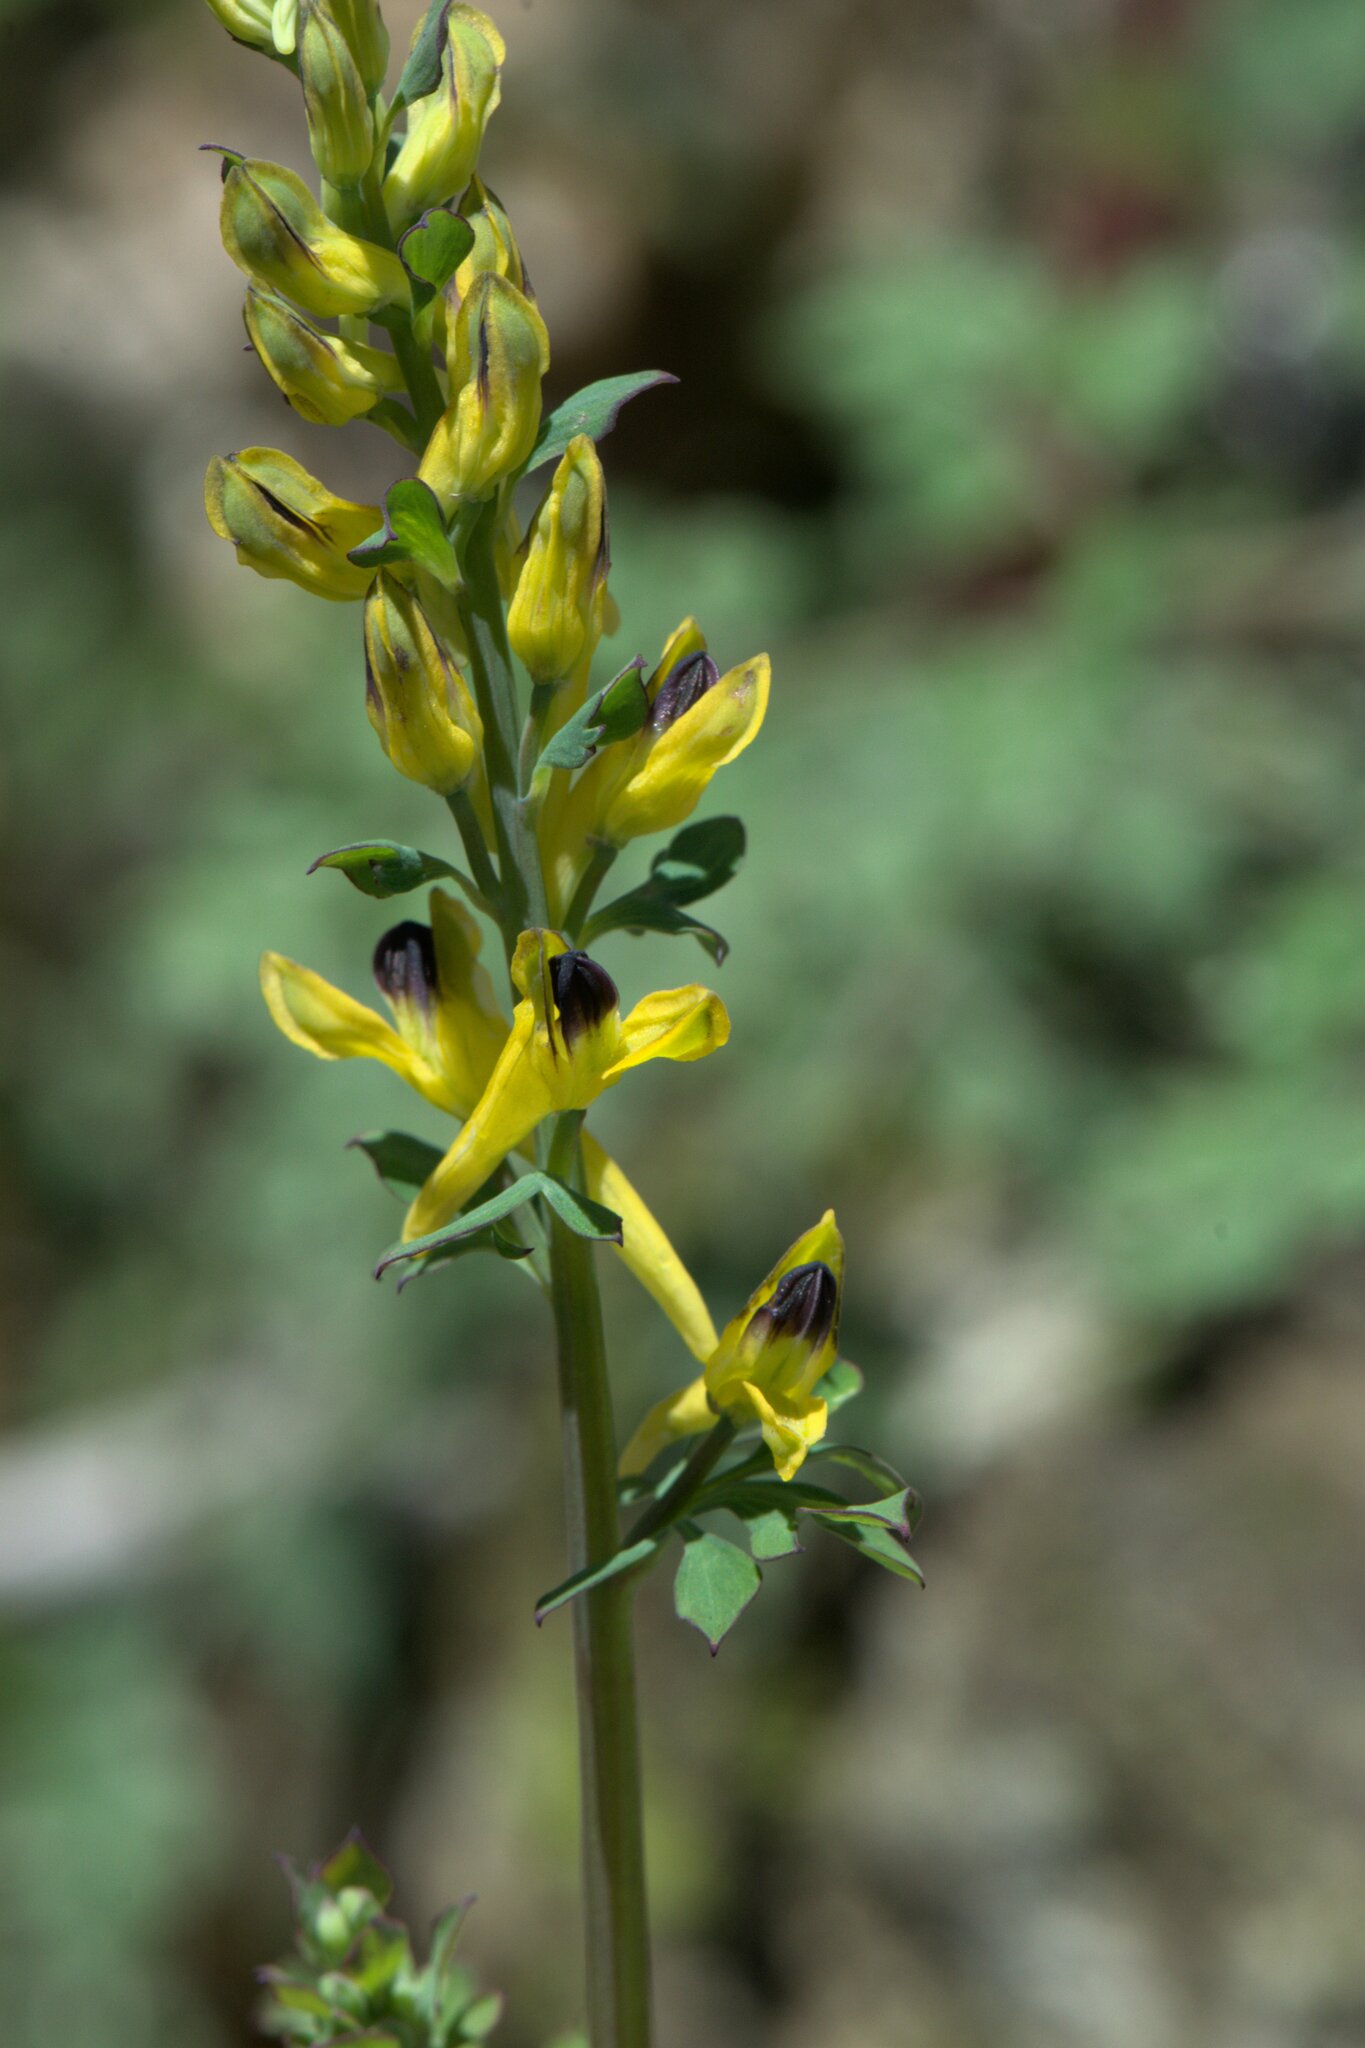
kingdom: Plantae
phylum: Tracheophyta
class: Magnoliopsida
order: Ranunculales
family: Papaveraceae
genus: Corydalis
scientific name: Corydalis cornuta
